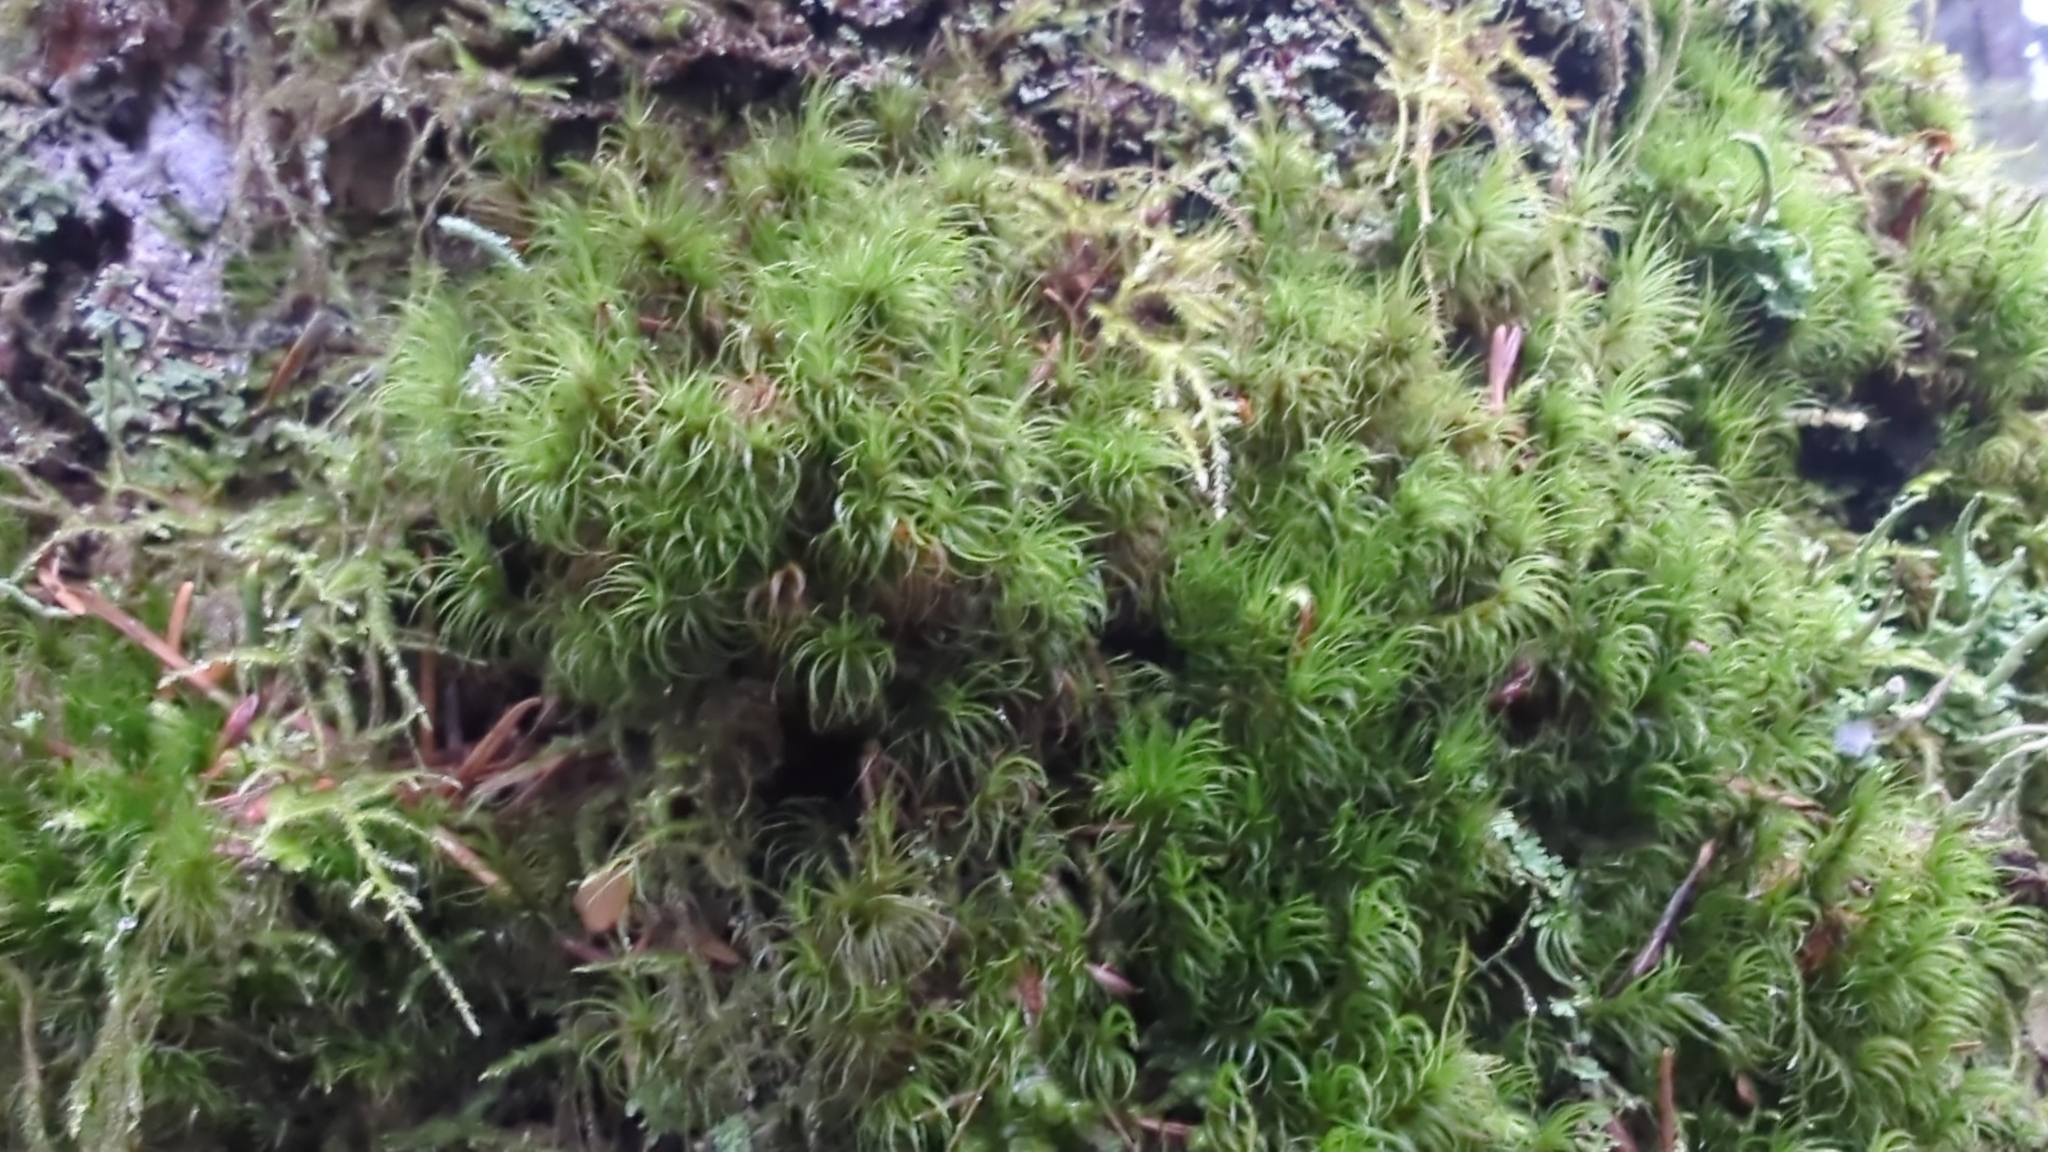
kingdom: Plantae
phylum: Bryophyta
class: Bryopsida
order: Dicranales
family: Dicranaceae
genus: Dicranum
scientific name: Dicranum fuscescens
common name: Curly heron's-bill moss
